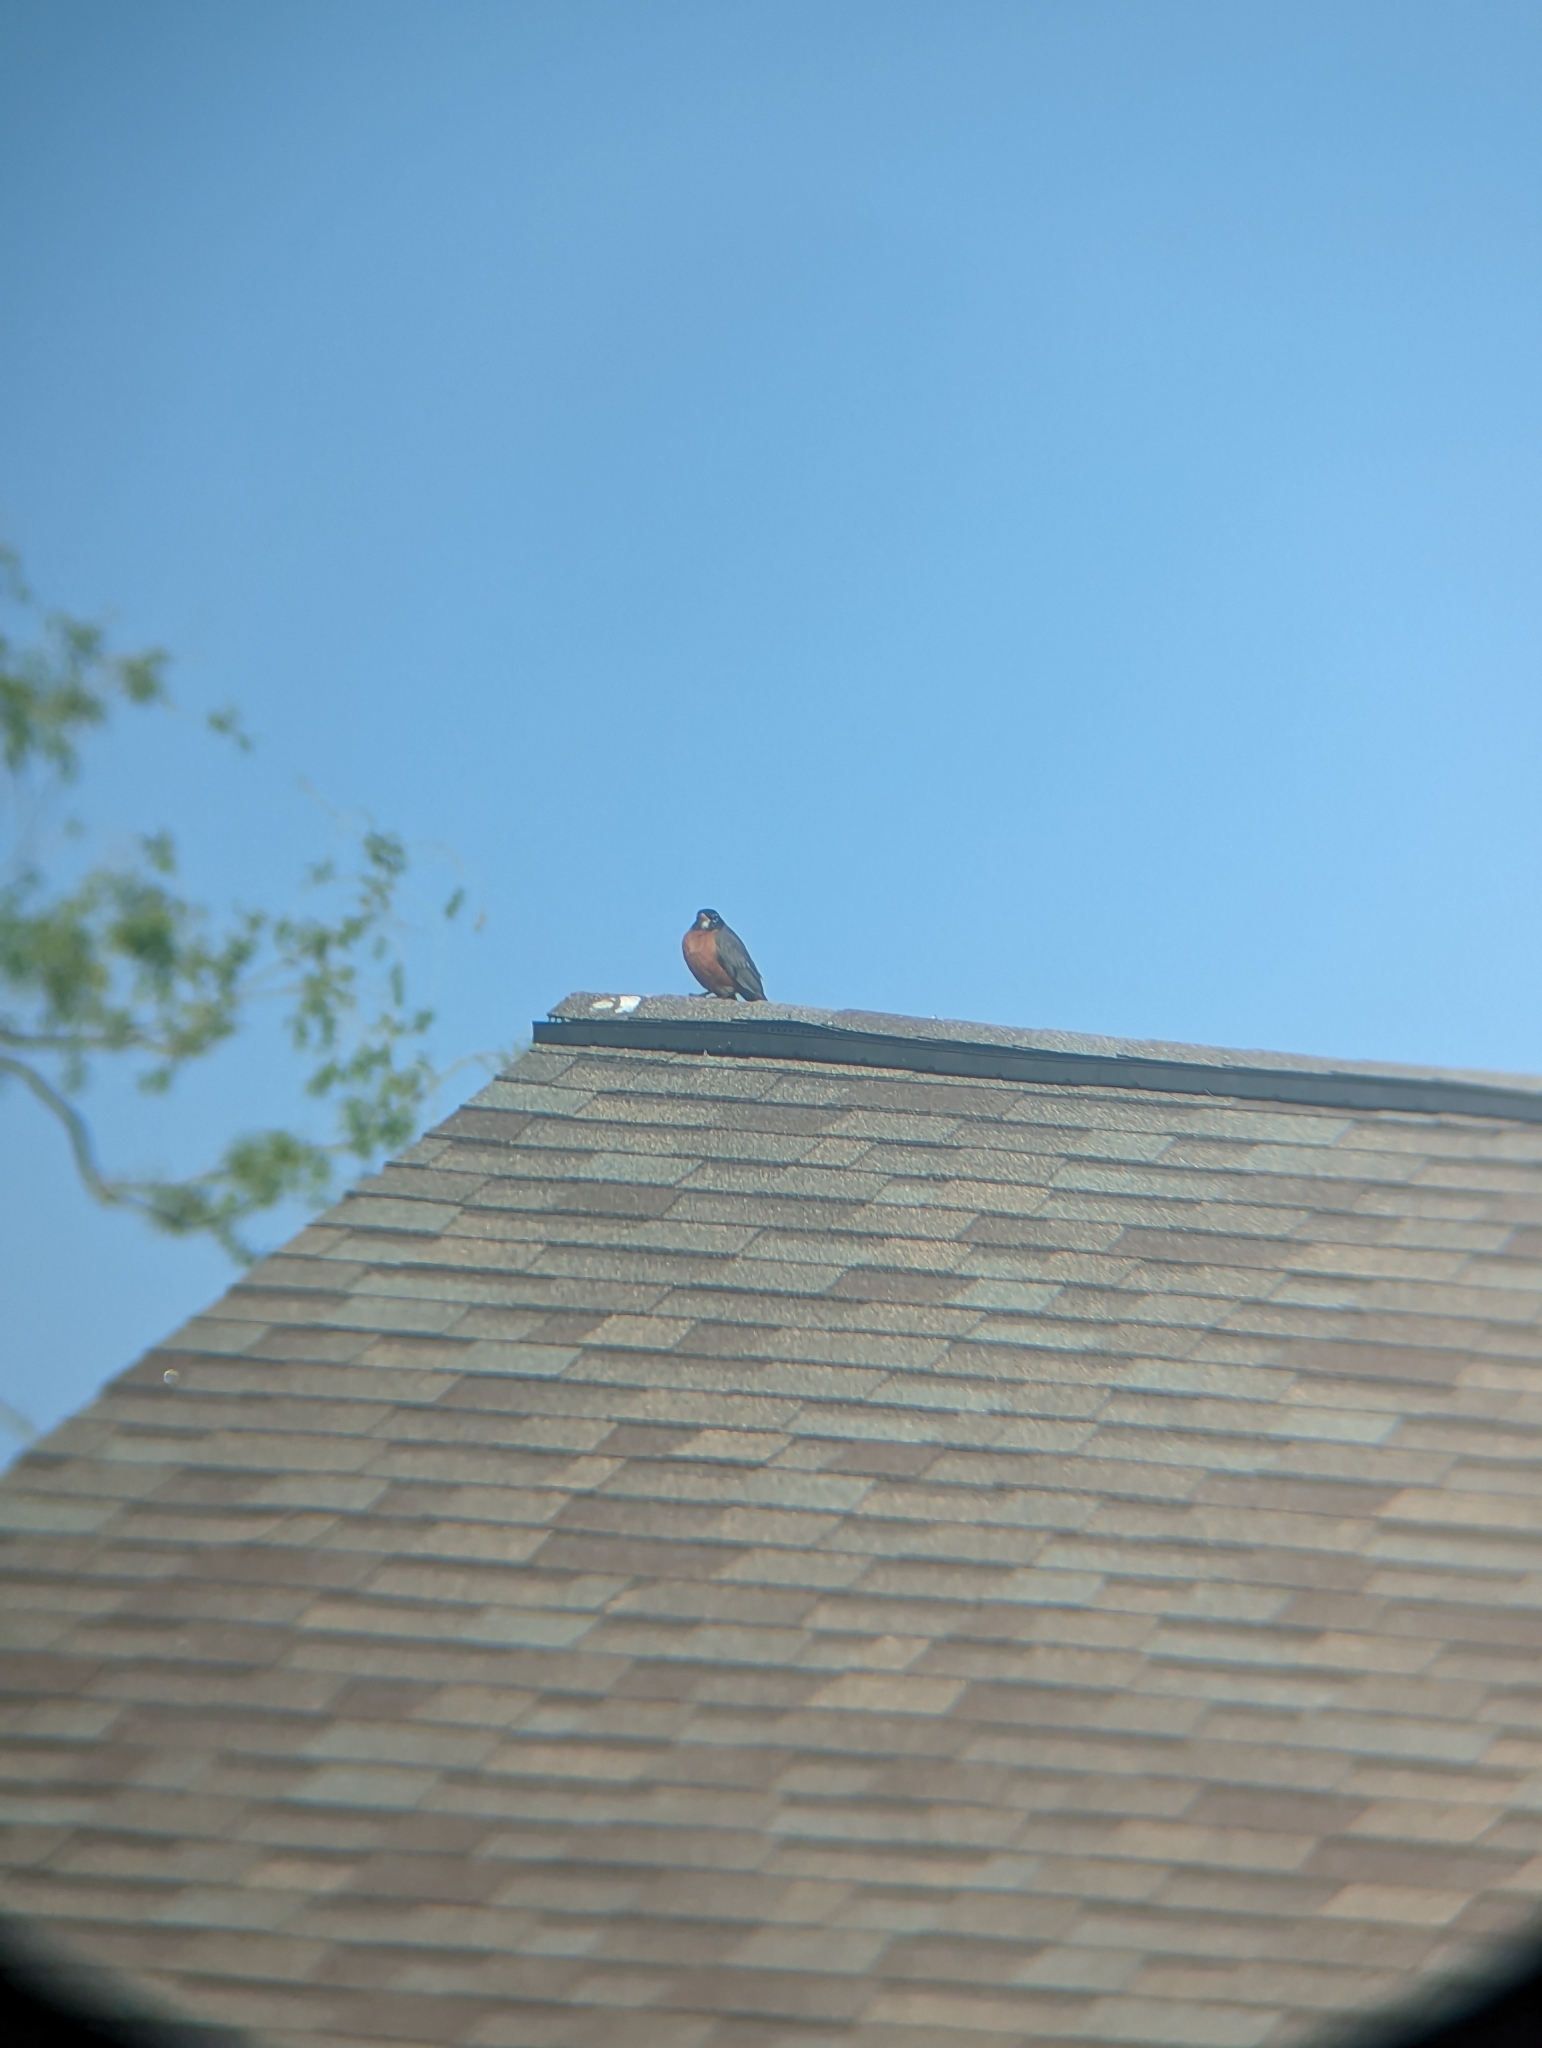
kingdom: Animalia
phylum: Chordata
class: Aves
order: Passeriformes
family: Turdidae
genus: Turdus
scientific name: Turdus migratorius
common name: American robin
